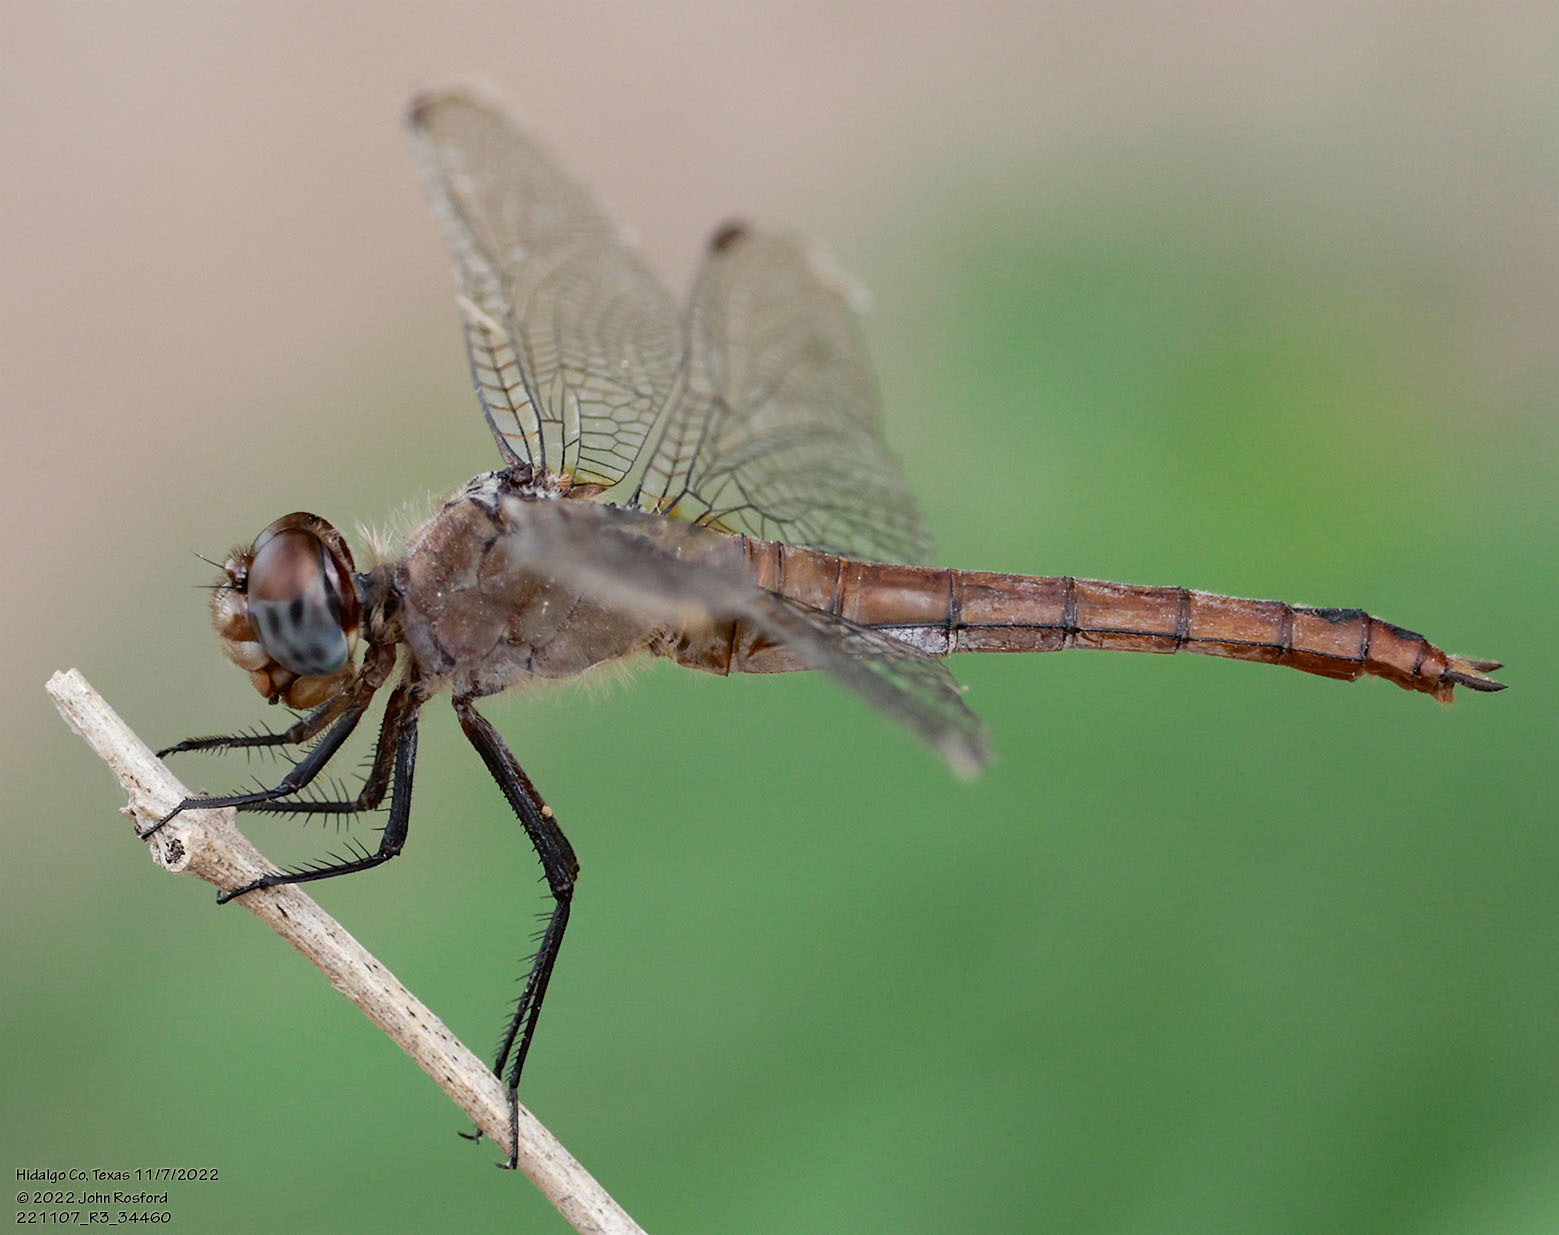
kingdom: Animalia
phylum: Arthropoda
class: Insecta
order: Odonata
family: Libellulidae
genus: Brachymesia
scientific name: Brachymesia furcata
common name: Red-taled pennant
